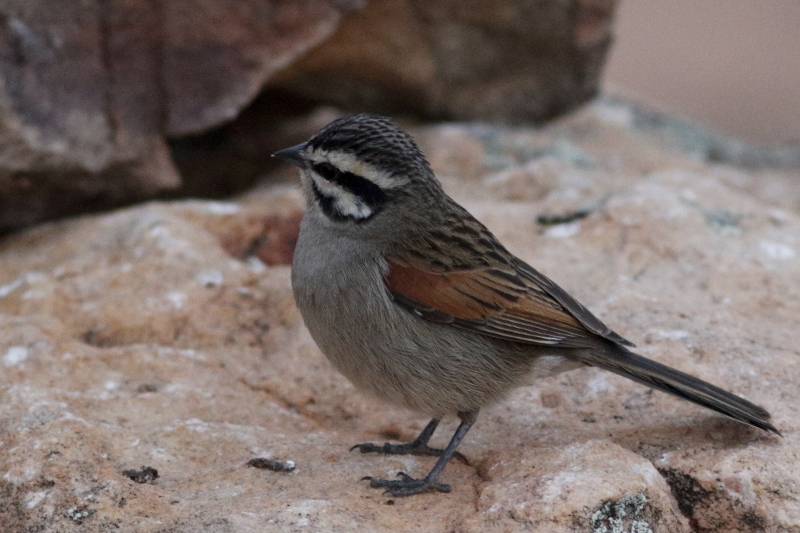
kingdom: Animalia
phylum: Chordata
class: Aves
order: Passeriformes
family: Emberizidae
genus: Emberiza
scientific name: Emberiza capensis
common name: Cape bunting
